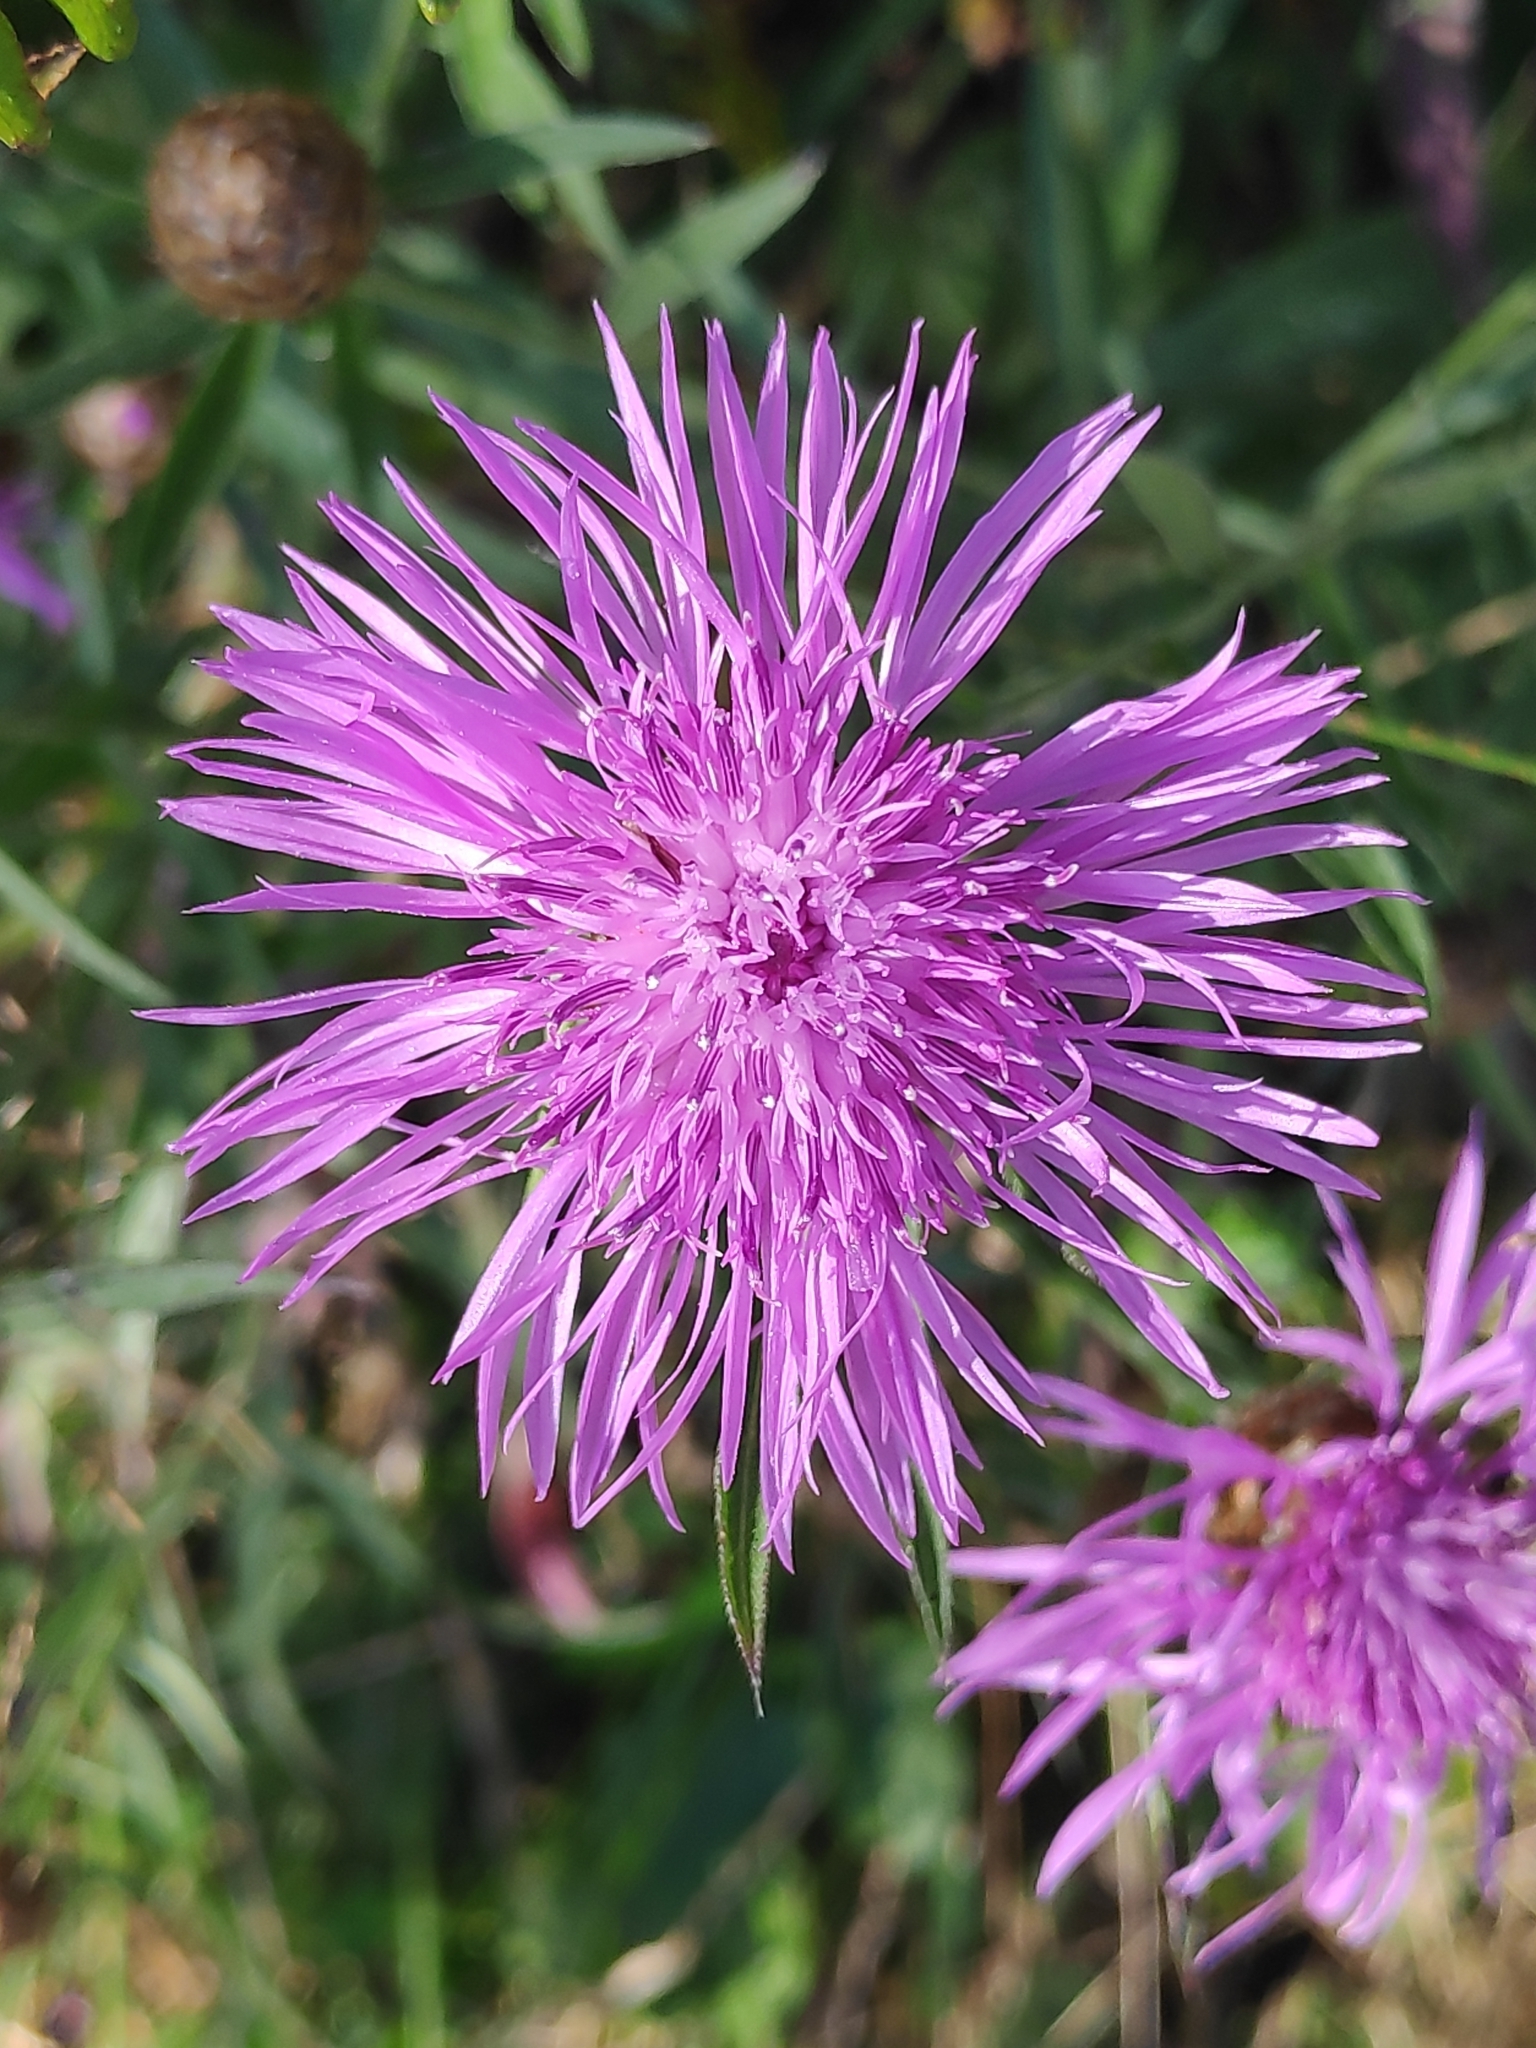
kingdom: Plantae
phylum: Tracheophyta
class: Magnoliopsida
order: Asterales
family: Asteraceae
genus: Centaurea
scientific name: Centaurea jacea
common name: Brown knapweed
